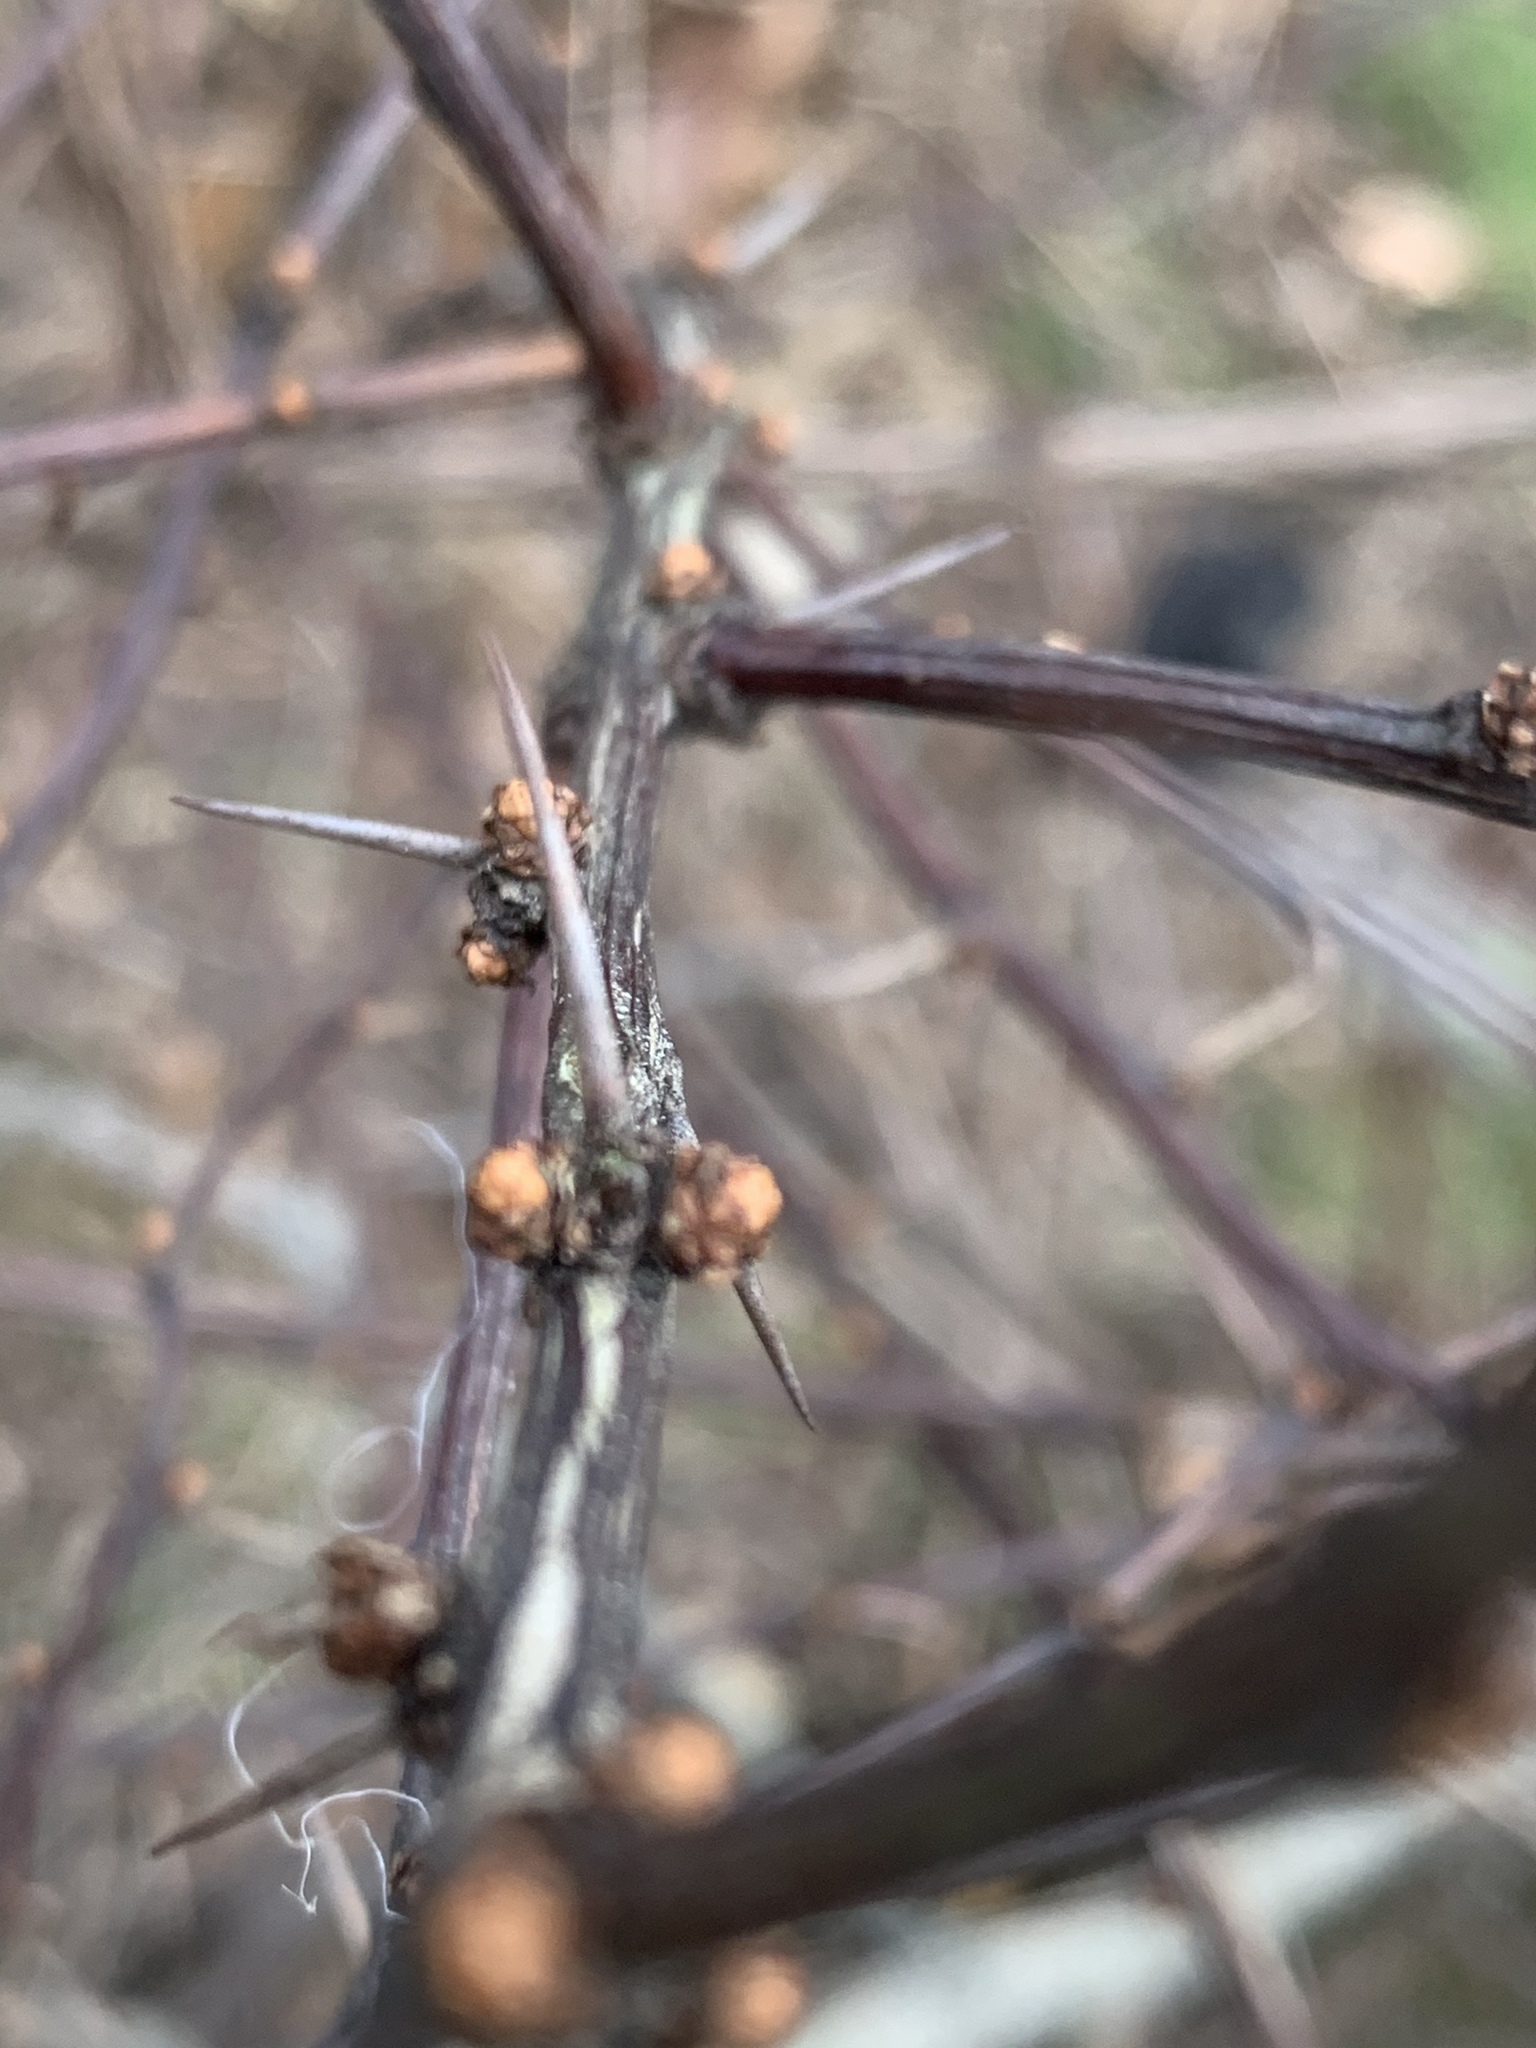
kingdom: Plantae
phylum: Tracheophyta
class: Magnoliopsida
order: Ranunculales
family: Berberidaceae
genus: Berberis
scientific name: Berberis thunbergii
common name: Japanese barberry
